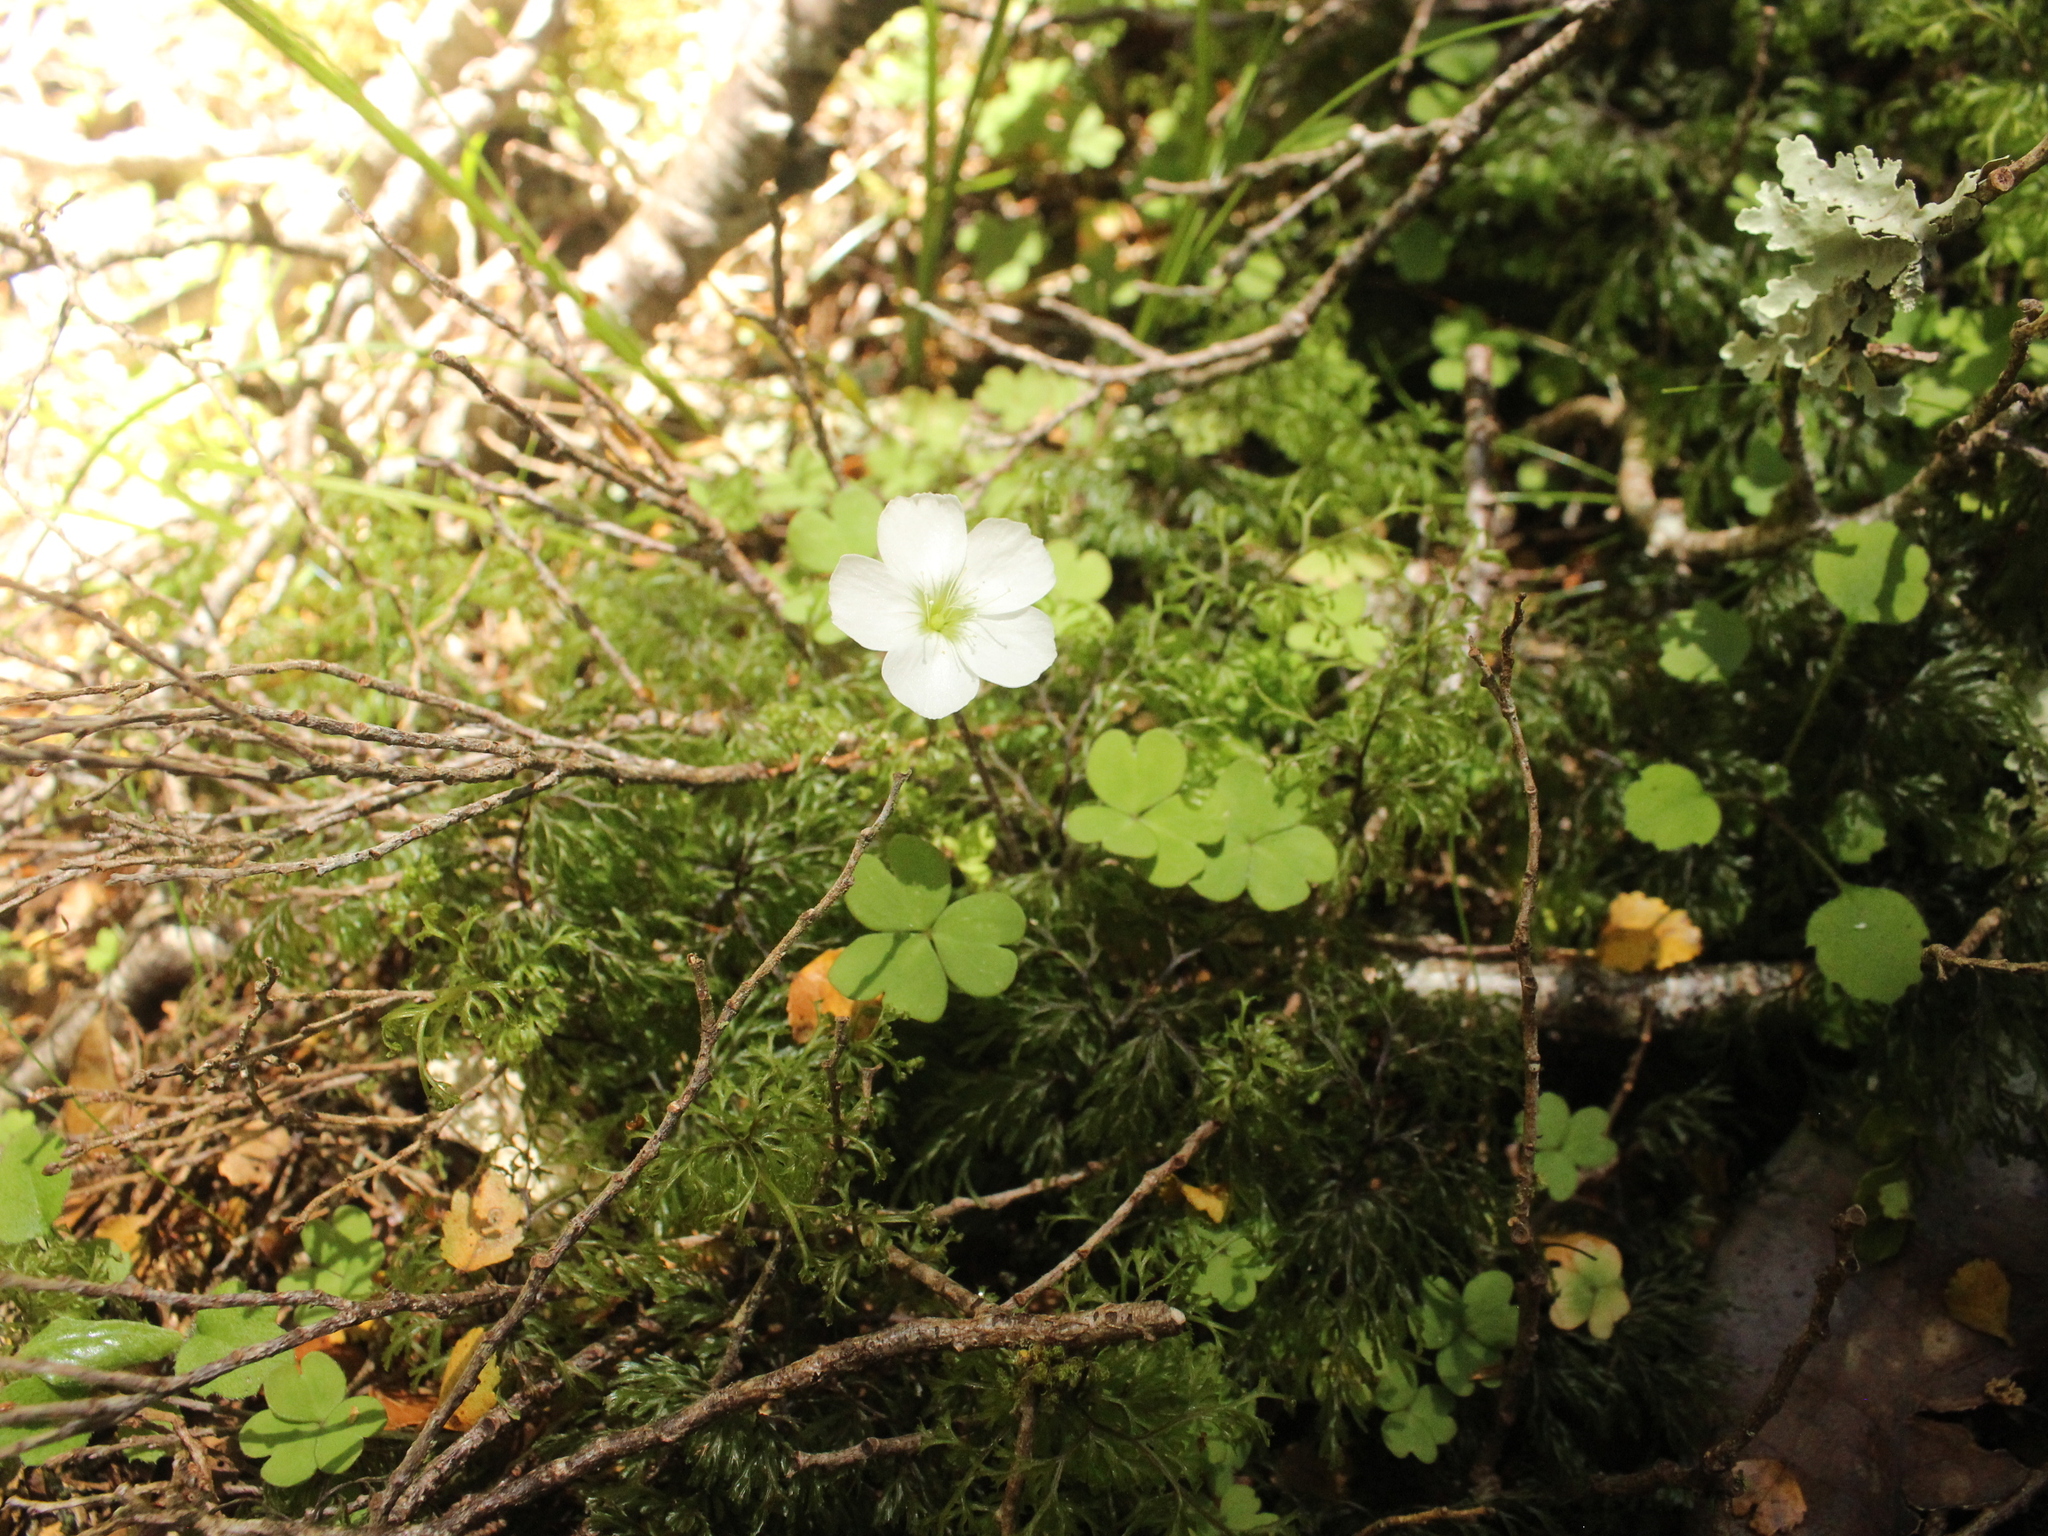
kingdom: Plantae
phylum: Tracheophyta
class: Magnoliopsida
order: Oxalidales
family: Oxalidaceae
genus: Oxalis
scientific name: Oxalis magellanica
